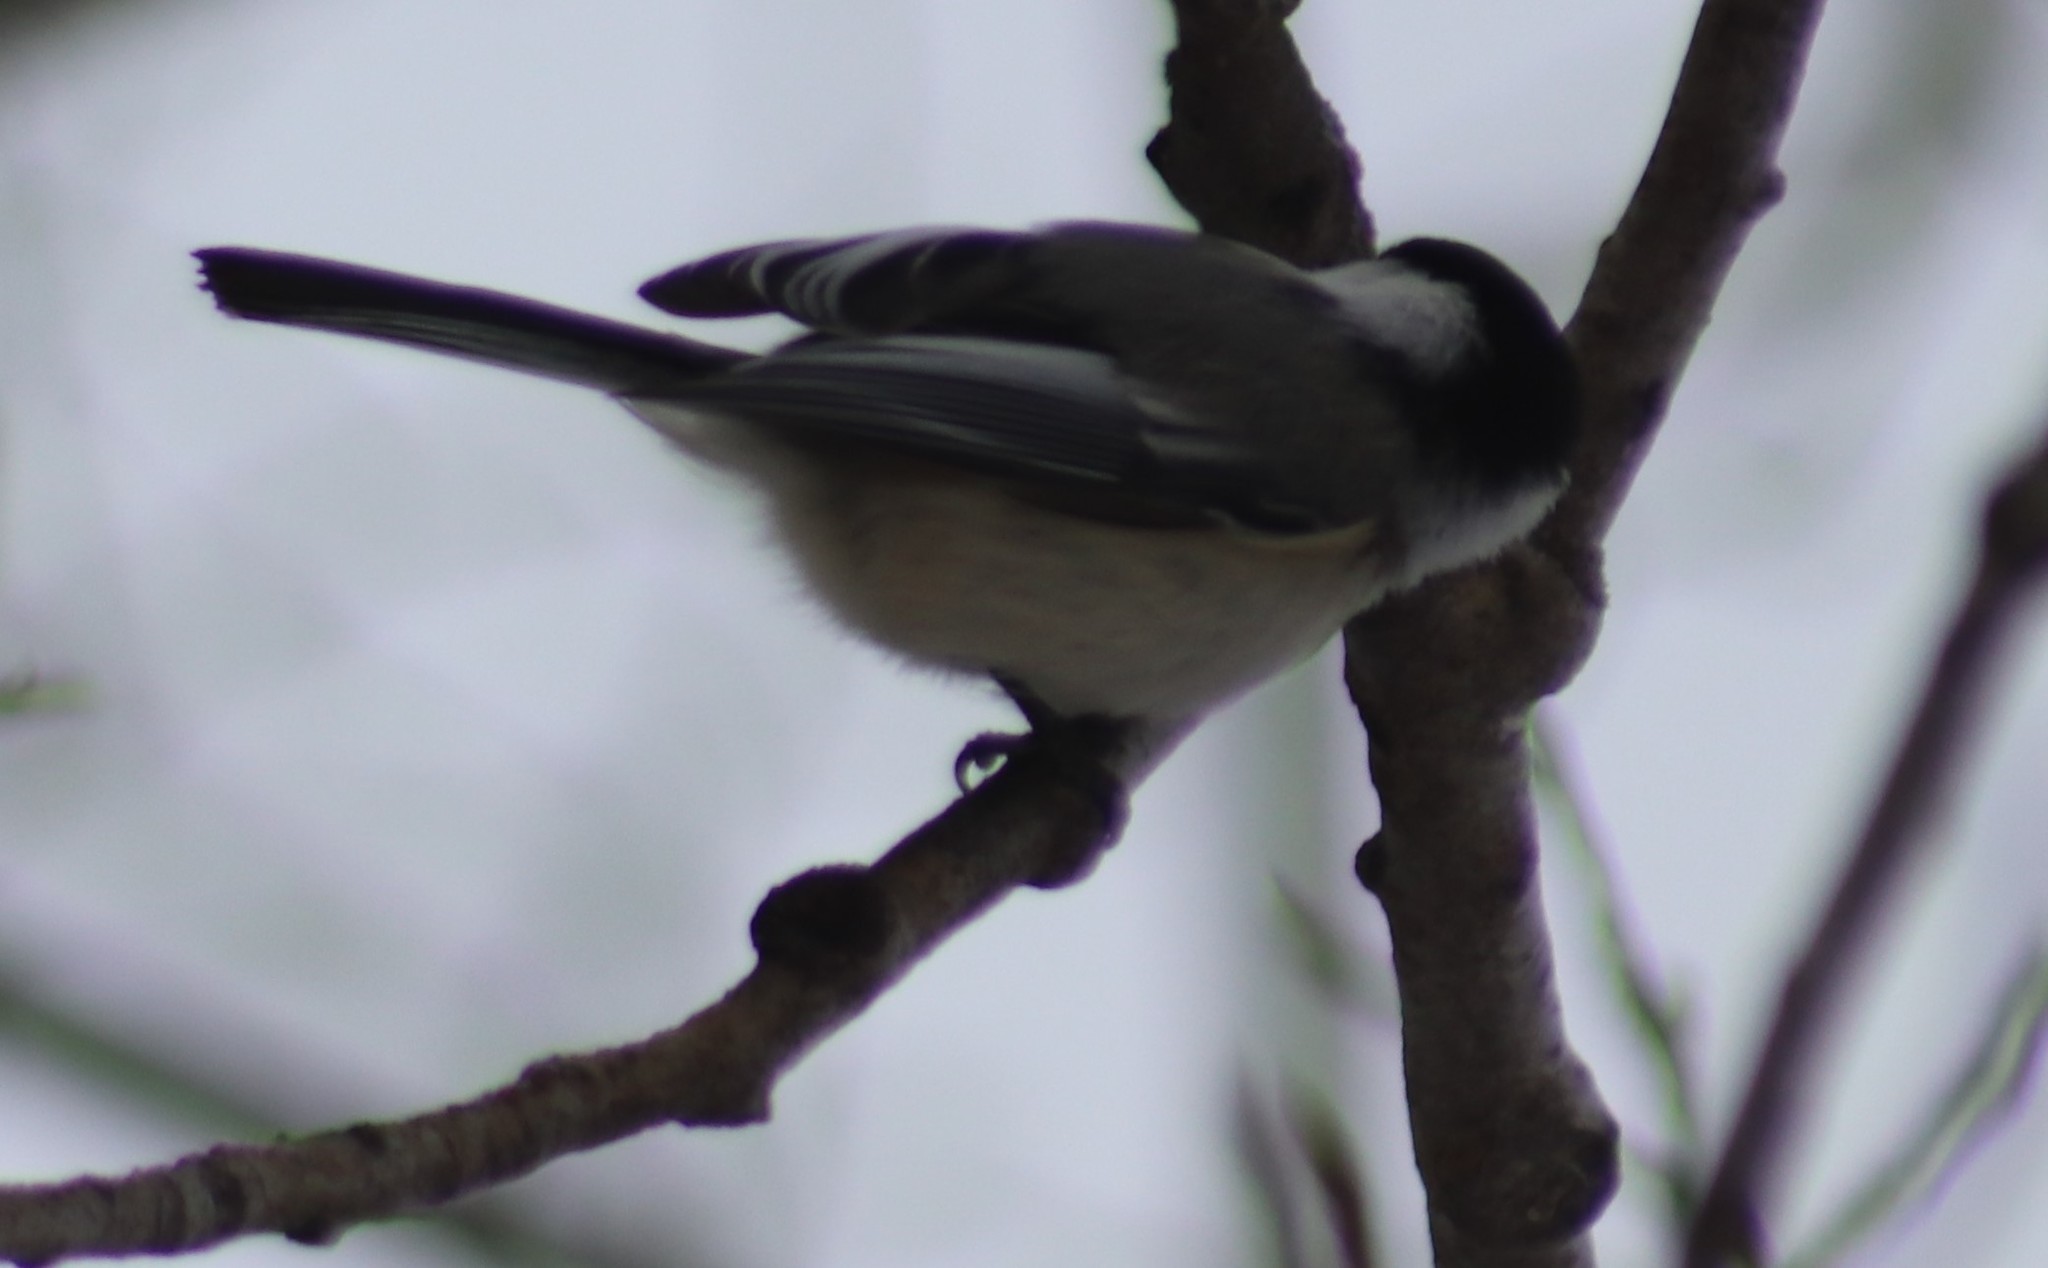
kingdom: Animalia
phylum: Chordata
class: Aves
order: Passeriformes
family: Paridae
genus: Poecile
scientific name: Poecile atricapillus
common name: Black-capped chickadee
